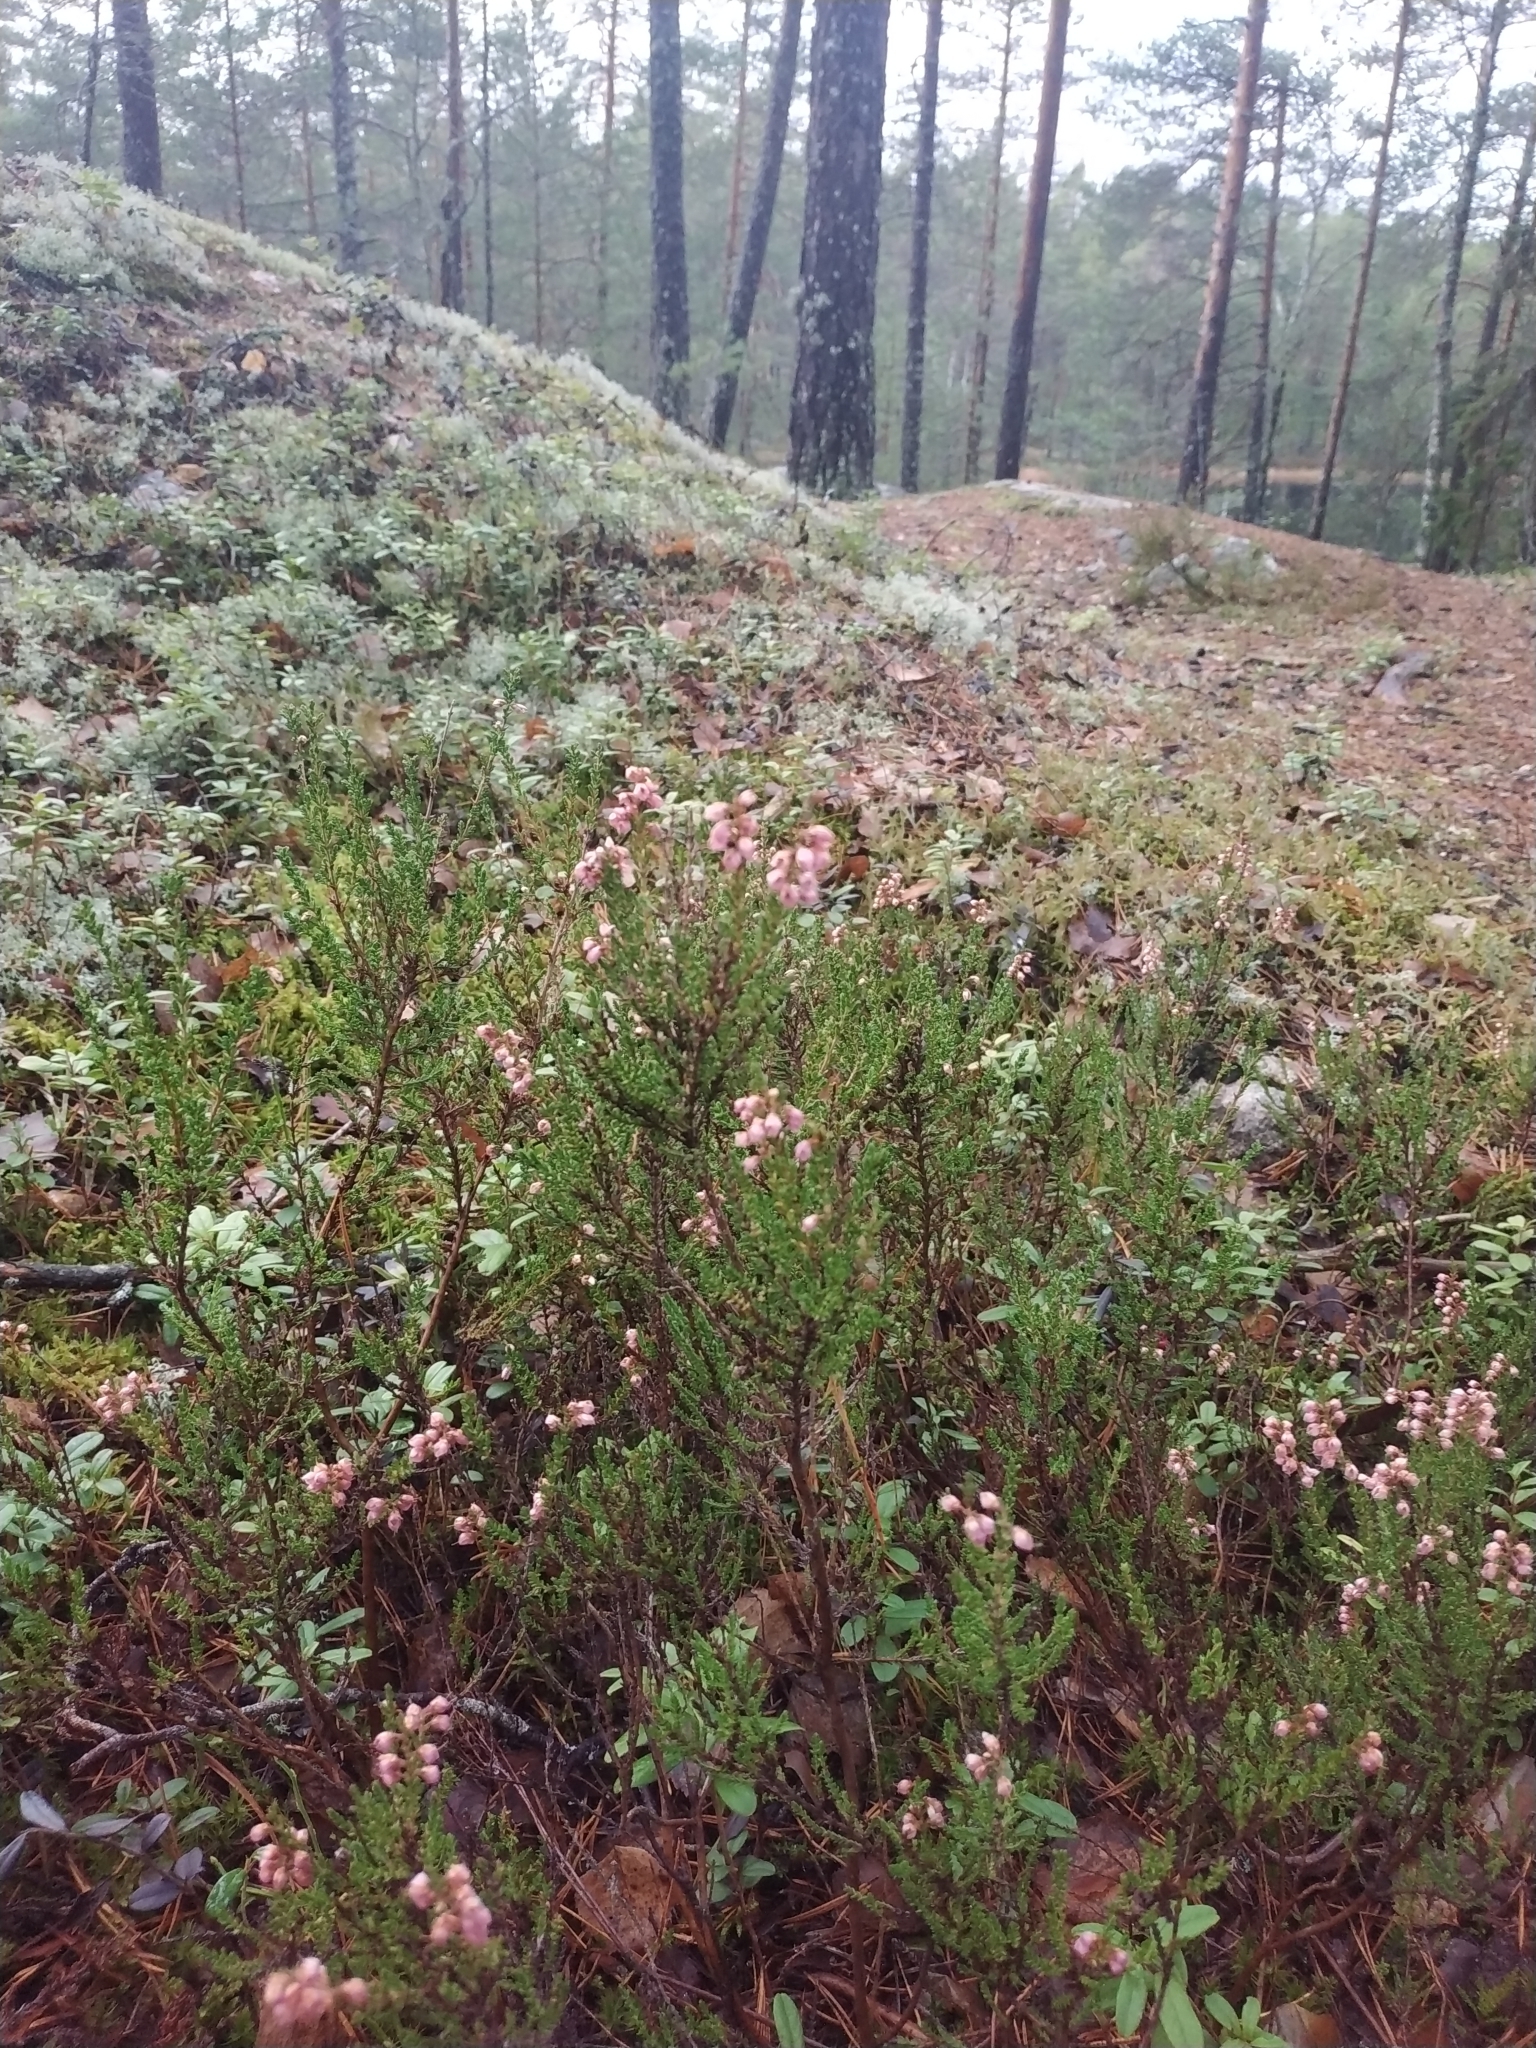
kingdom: Plantae
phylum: Tracheophyta
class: Magnoliopsida
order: Ericales
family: Ericaceae
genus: Calluna
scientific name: Calluna vulgaris
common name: Heather
